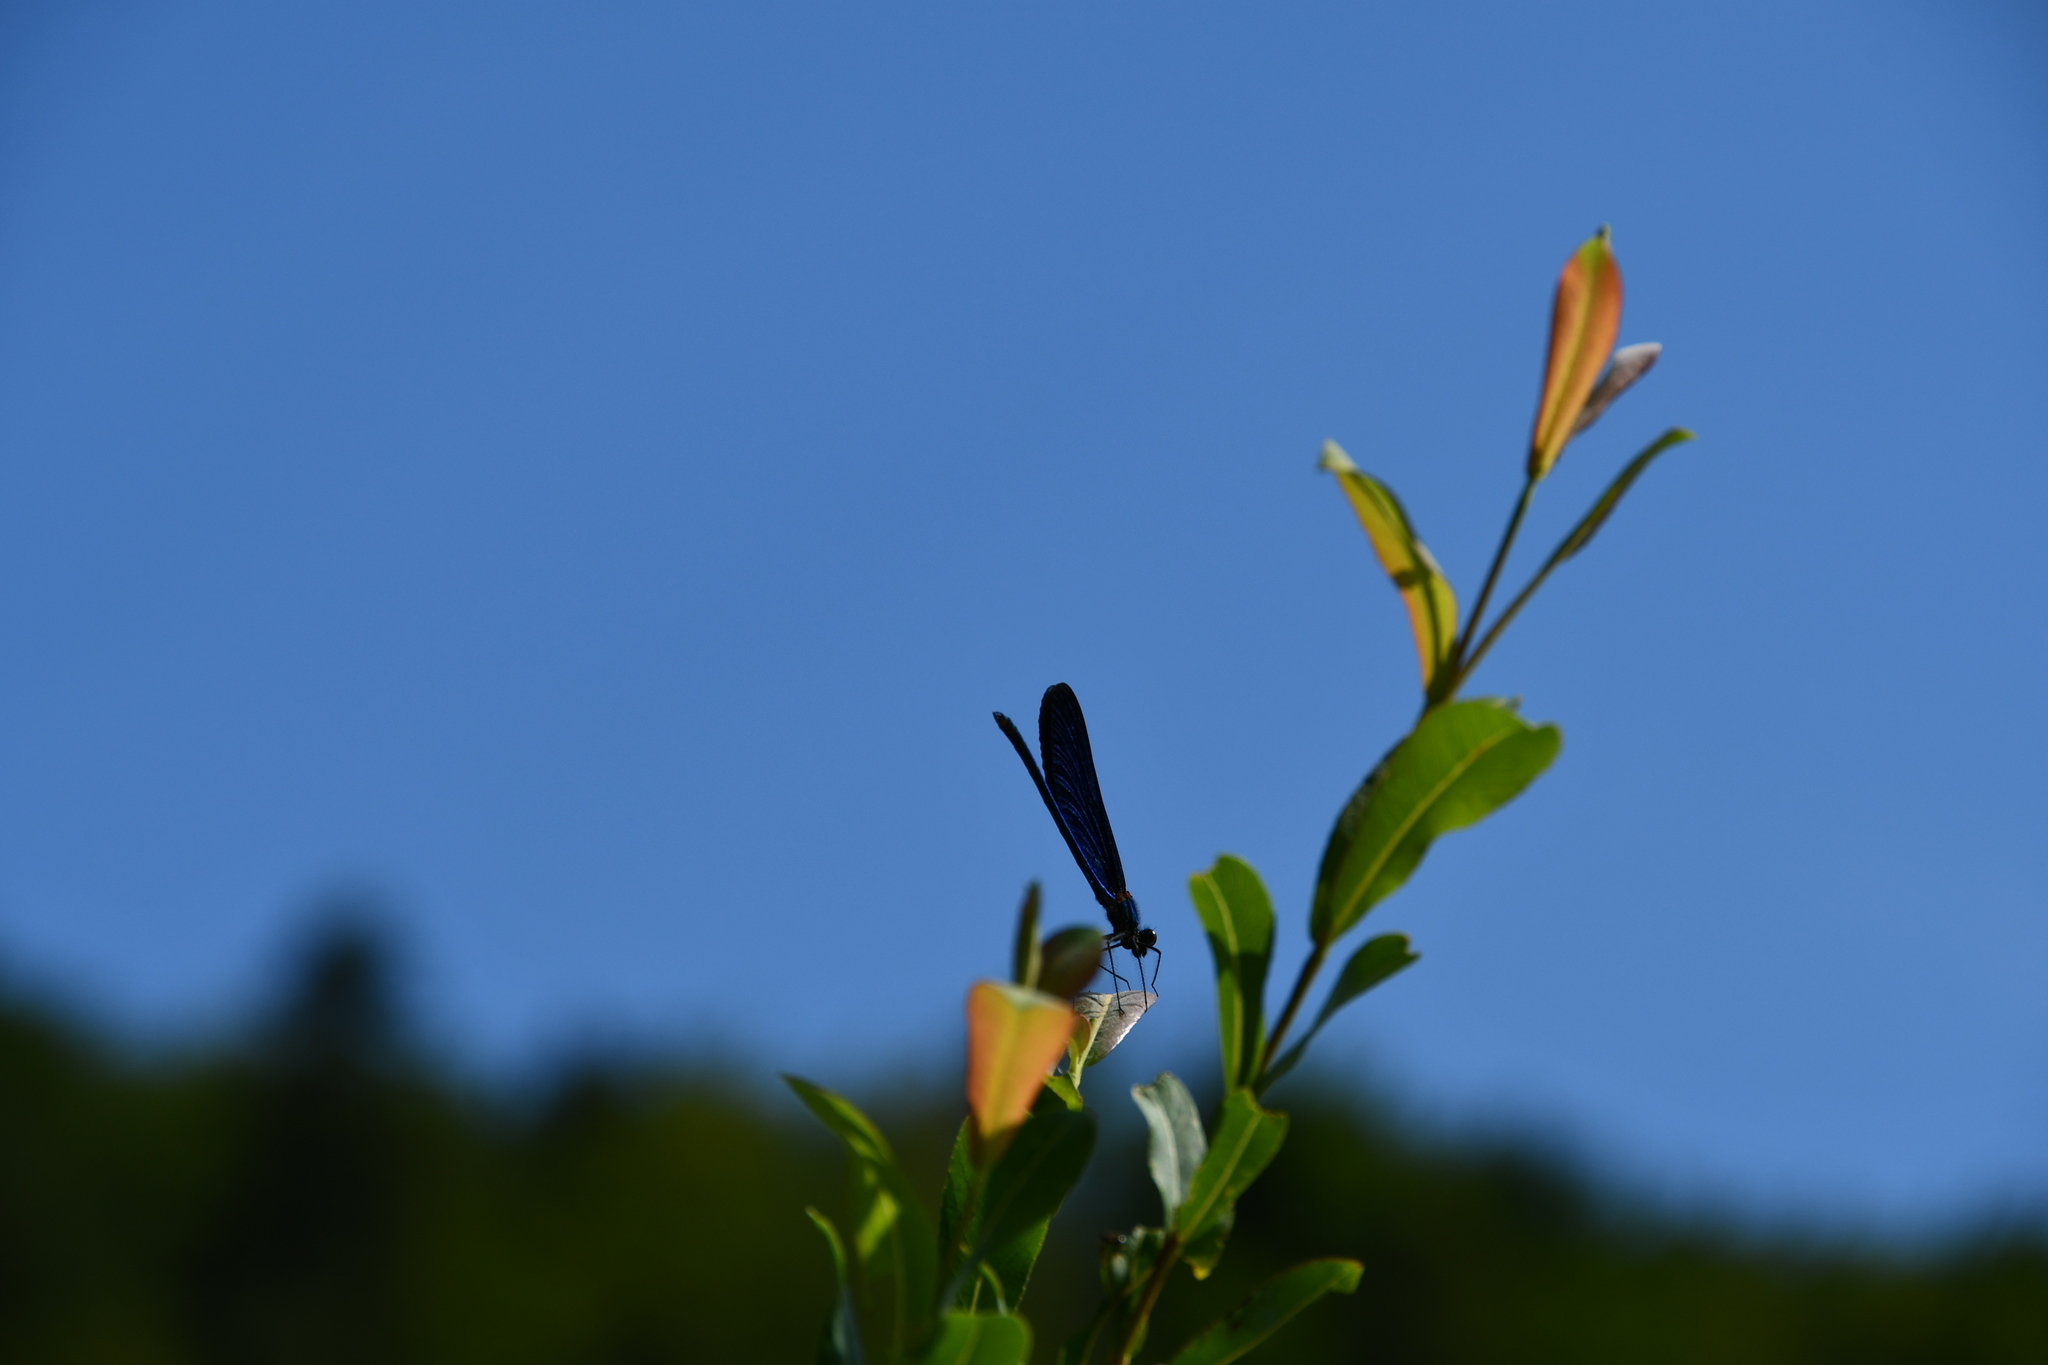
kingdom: Animalia
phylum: Arthropoda
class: Insecta
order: Odonata
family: Calopterygidae
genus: Calopteryx
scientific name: Calopteryx virgo
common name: Beautiful demoiselle
